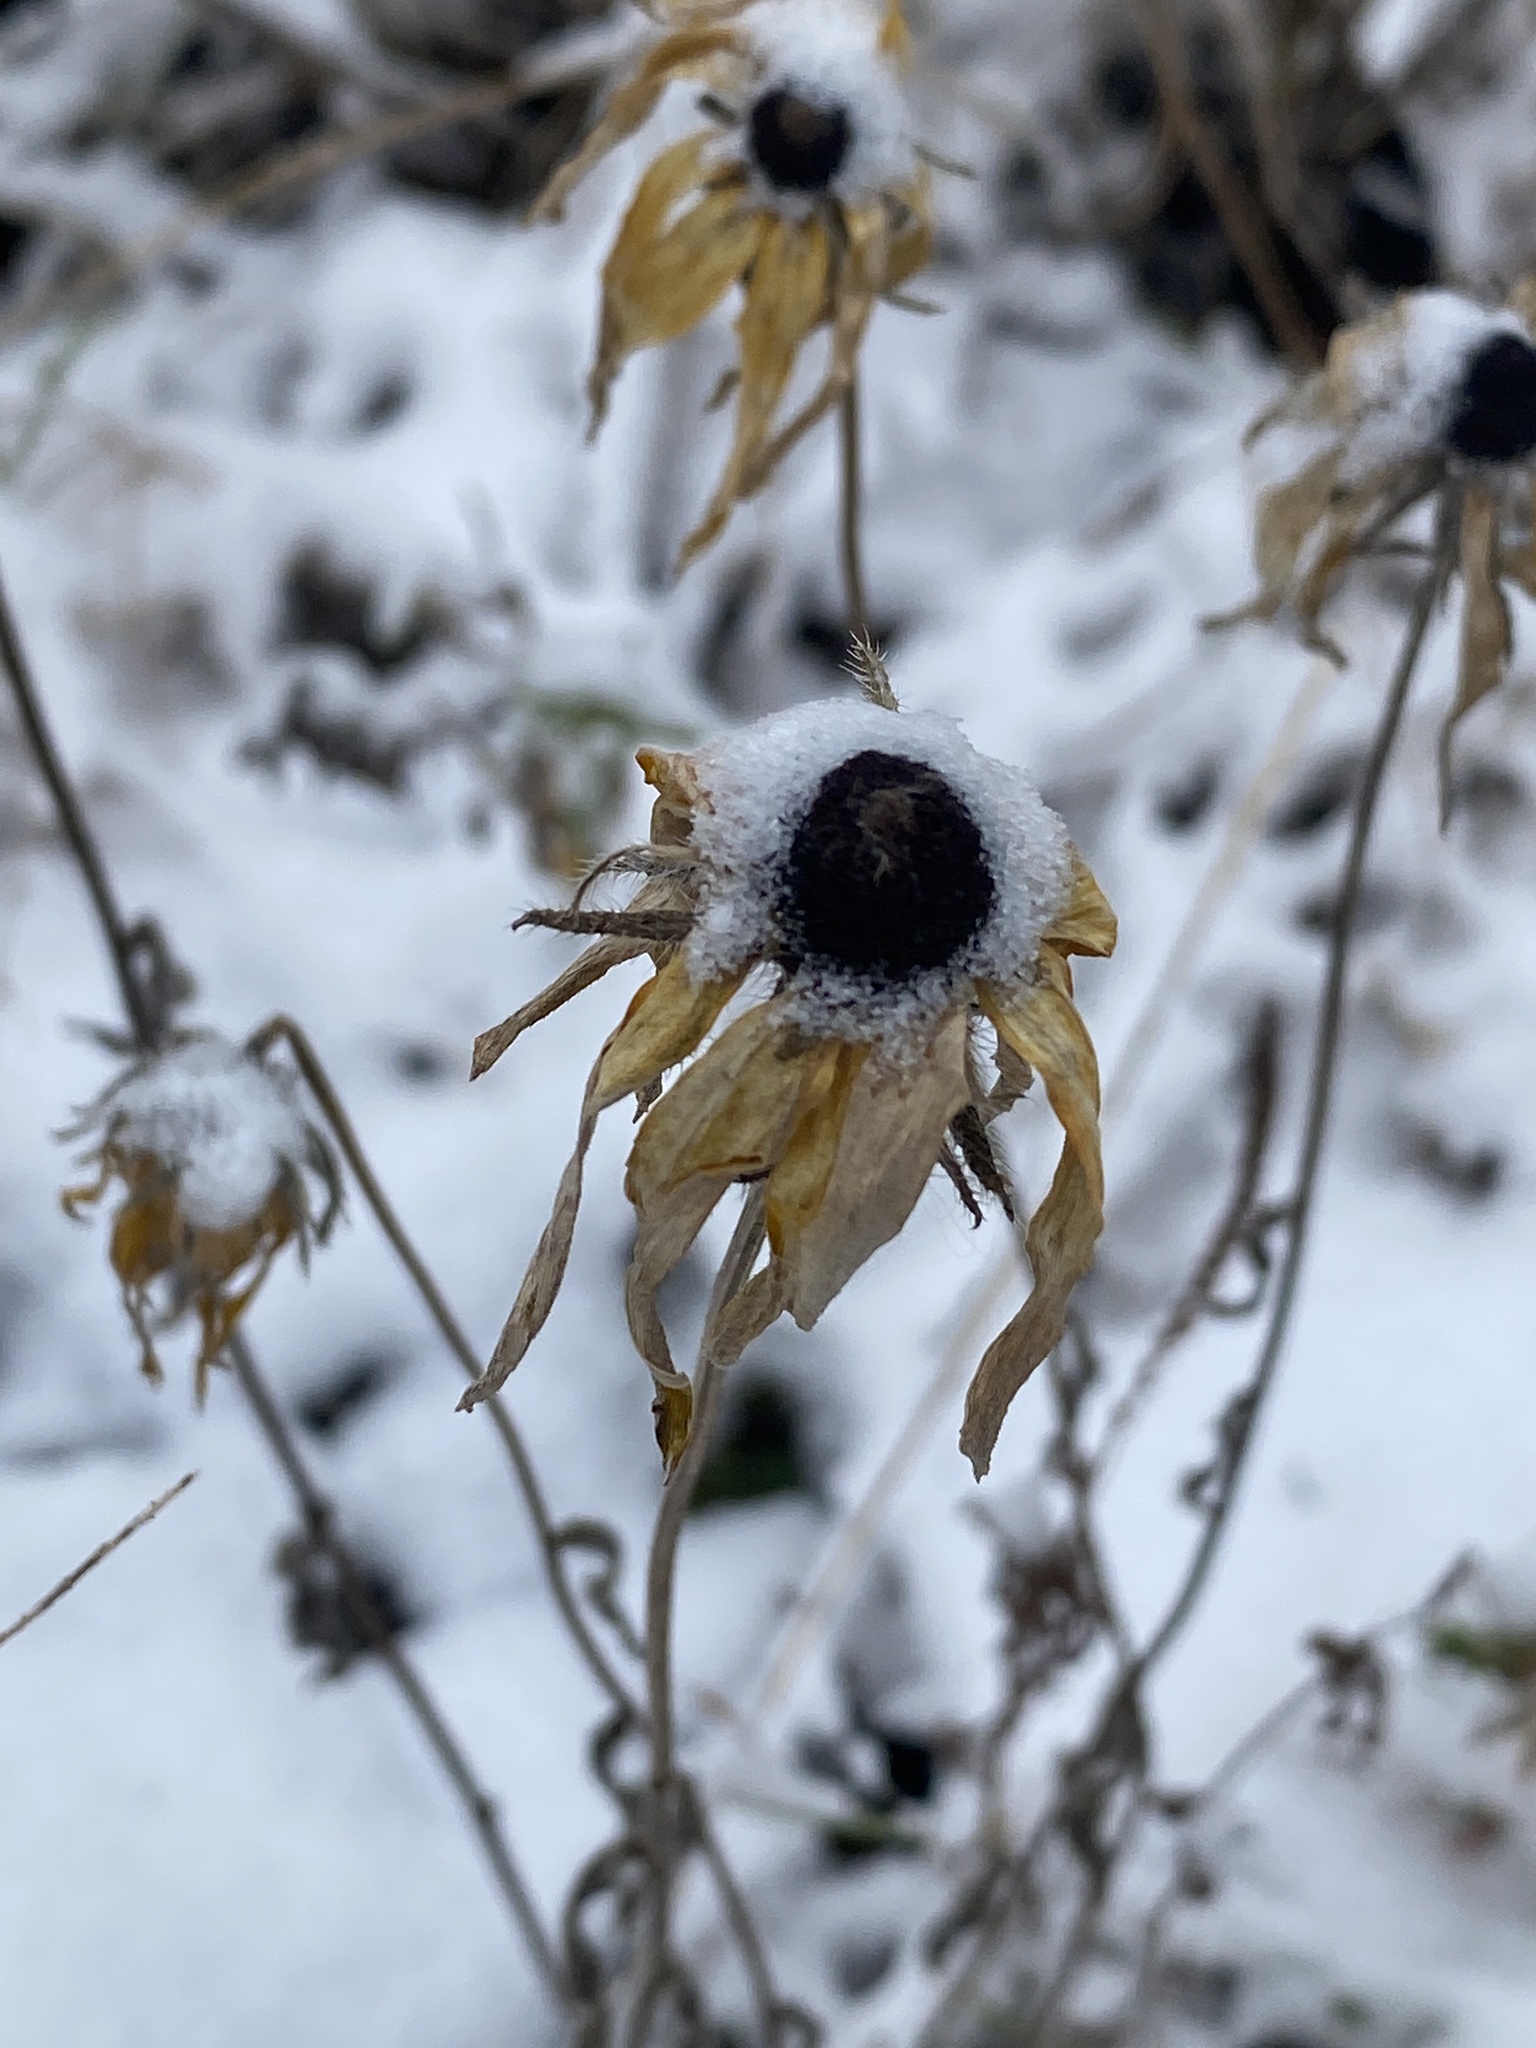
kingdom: Plantae
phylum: Tracheophyta
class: Magnoliopsida
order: Asterales
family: Asteraceae
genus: Rudbeckia
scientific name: Rudbeckia hirta
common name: Black-eyed-susan
